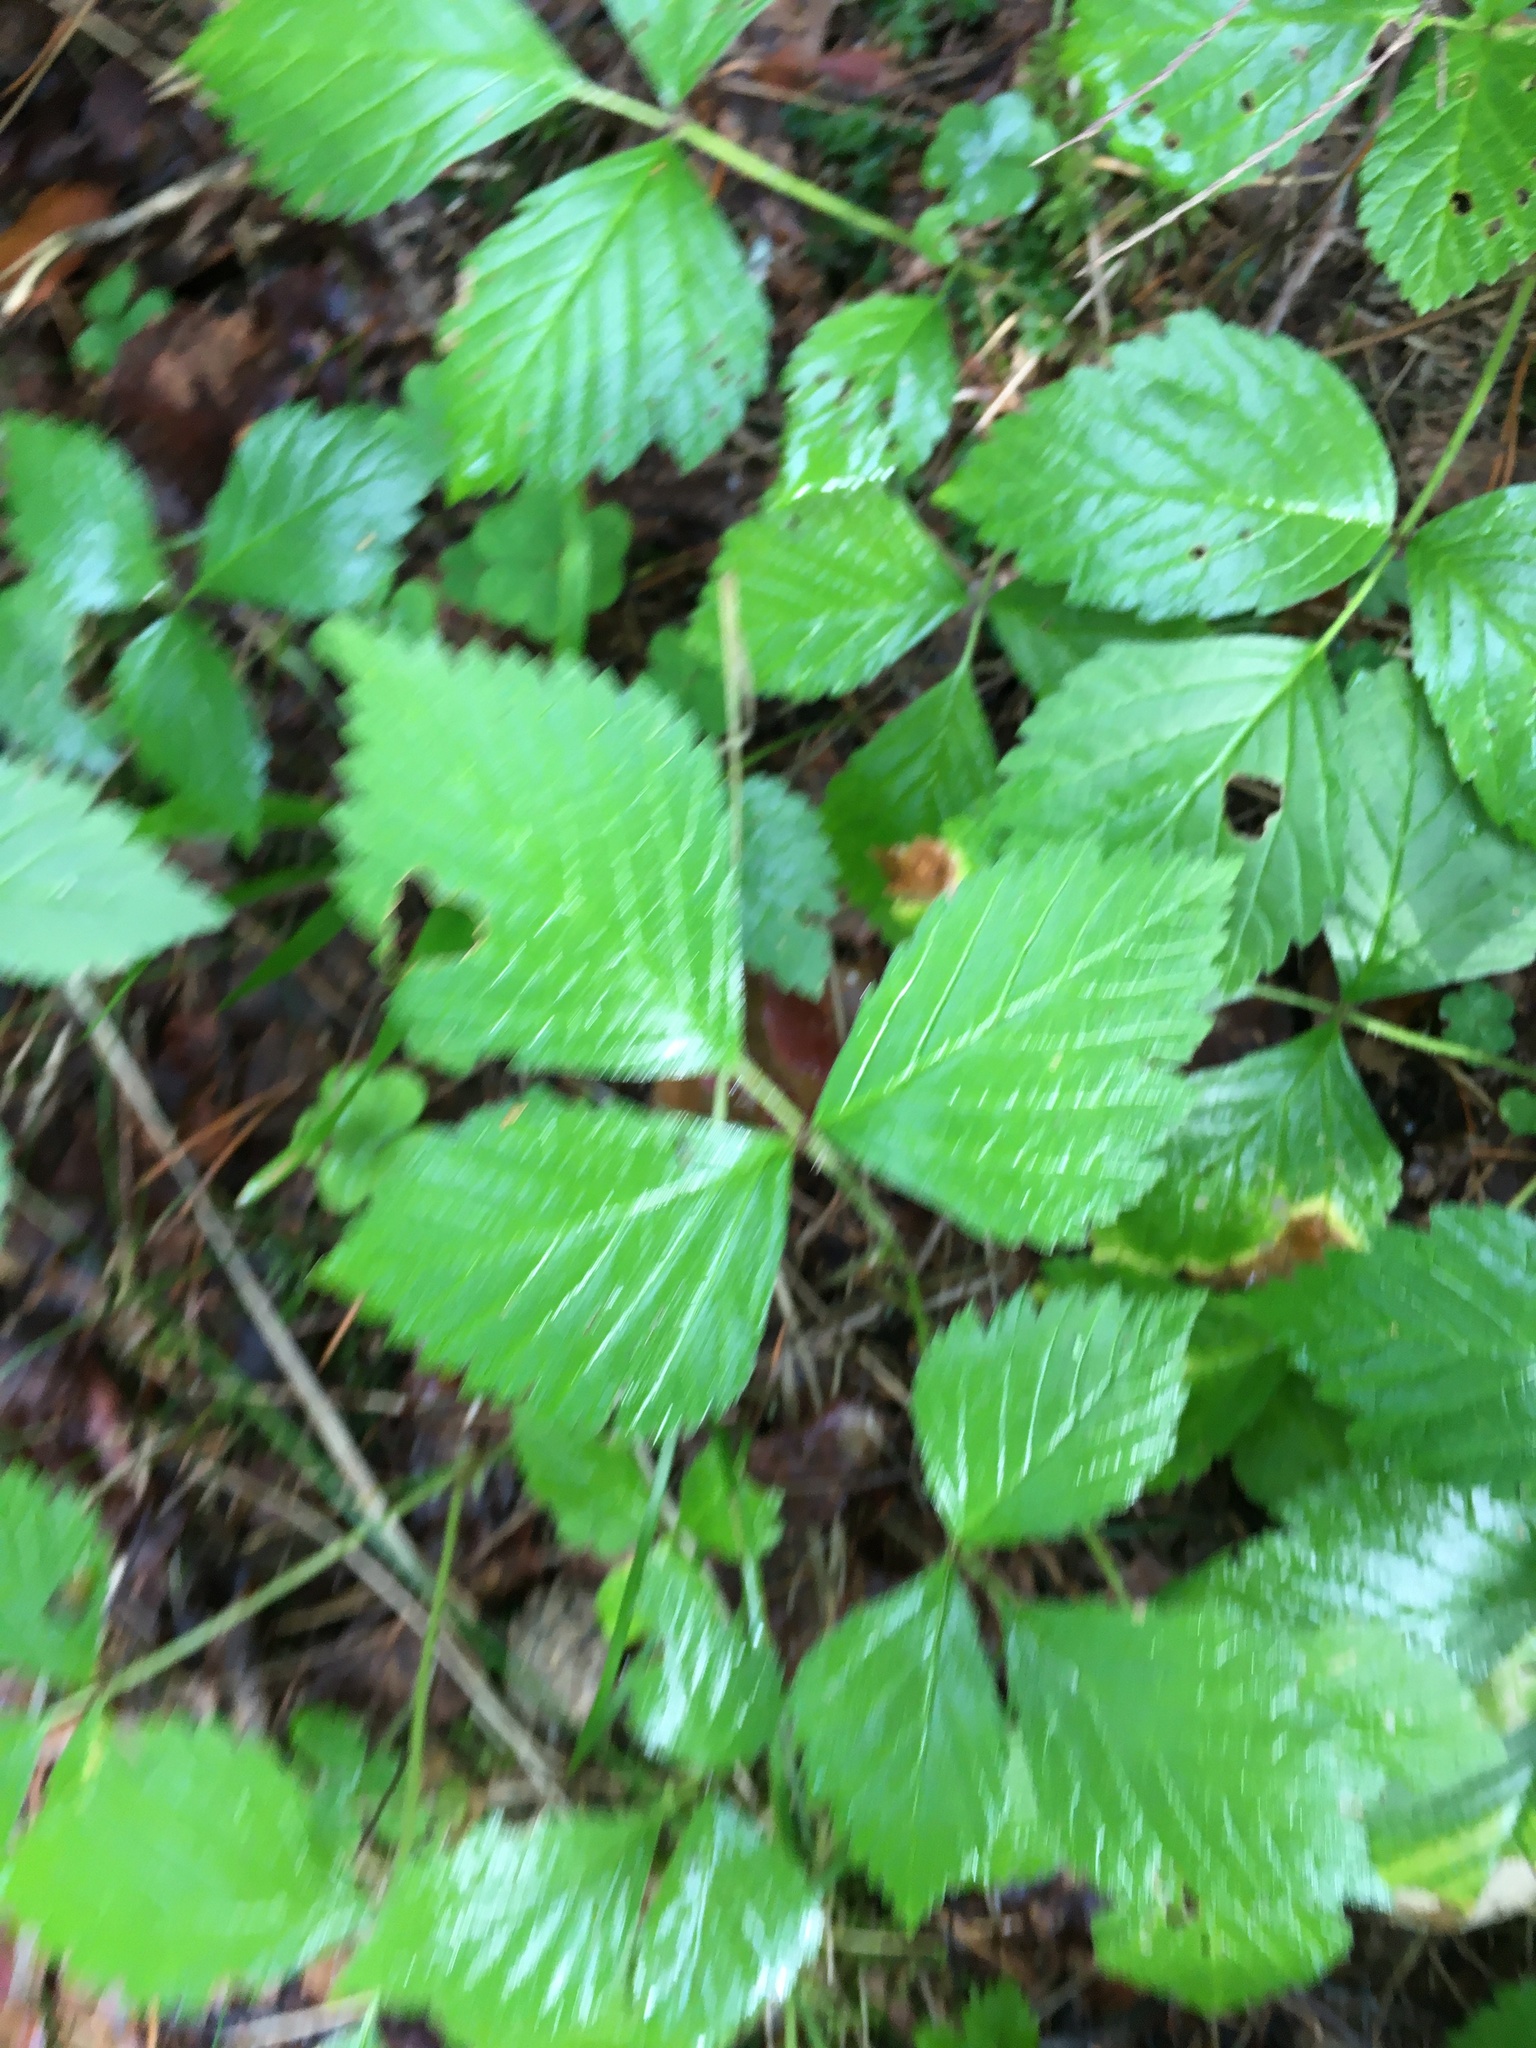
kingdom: Plantae
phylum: Tracheophyta
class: Magnoliopsida
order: Rosales
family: Rosaceae
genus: Rubus
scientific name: Rubus saxatilis
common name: Stone bramble
